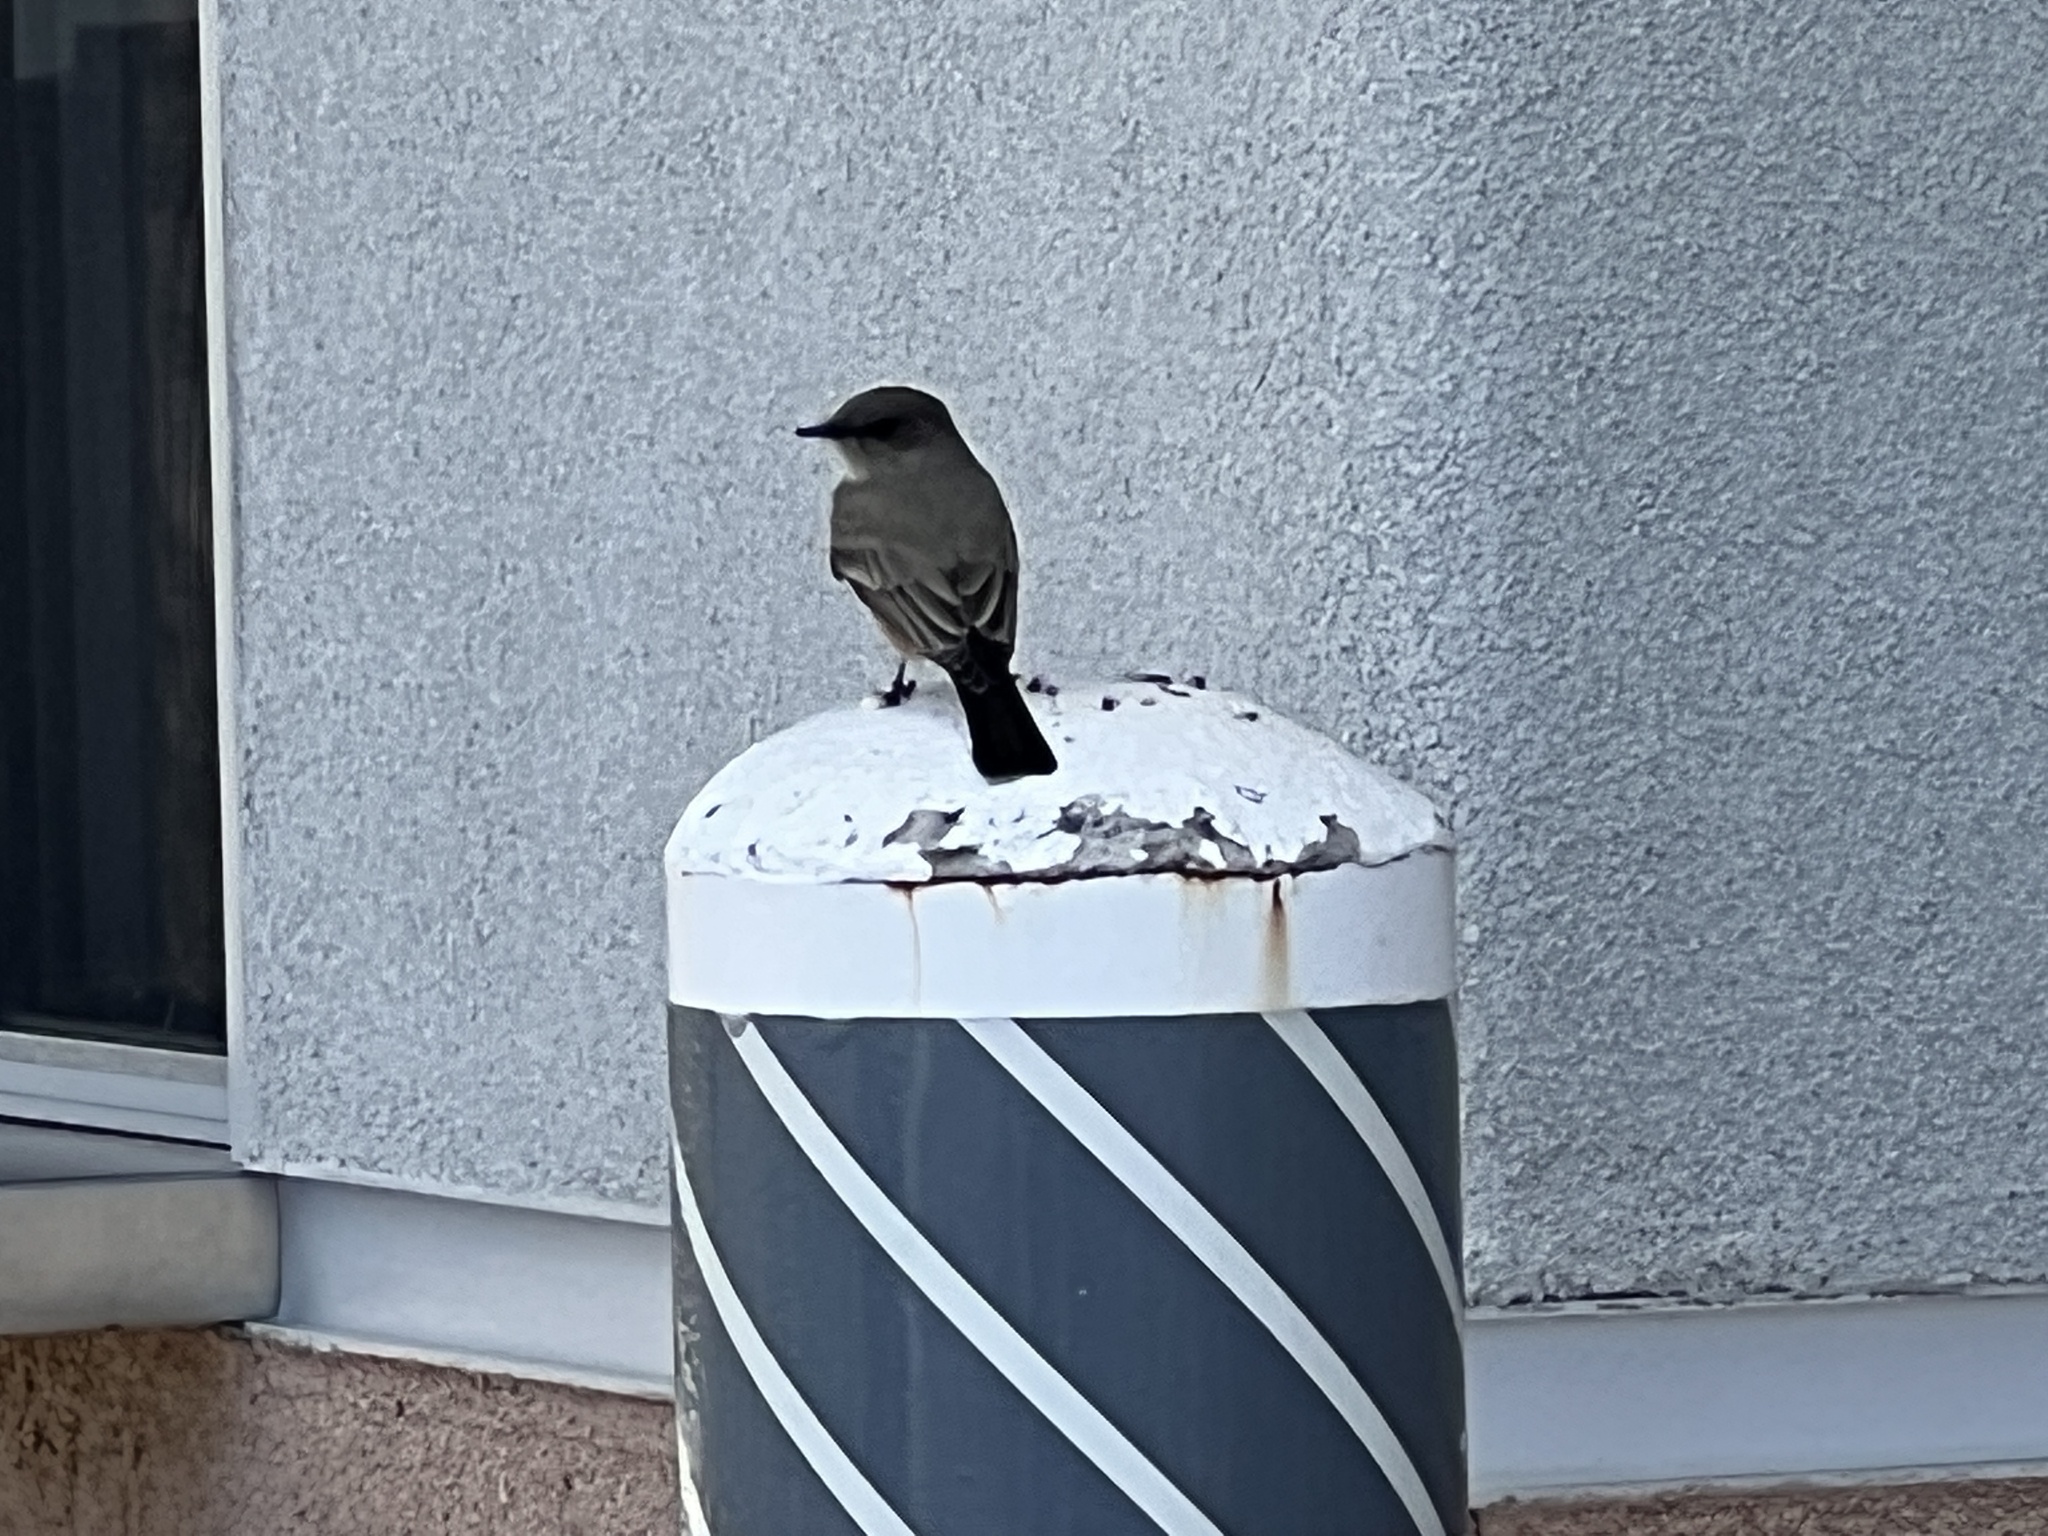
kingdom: Animalia
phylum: Chordata
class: Aves
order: Passeriformes
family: Tyrannidae
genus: Sayornis
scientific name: Sayornis saya
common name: Say's phoebe
